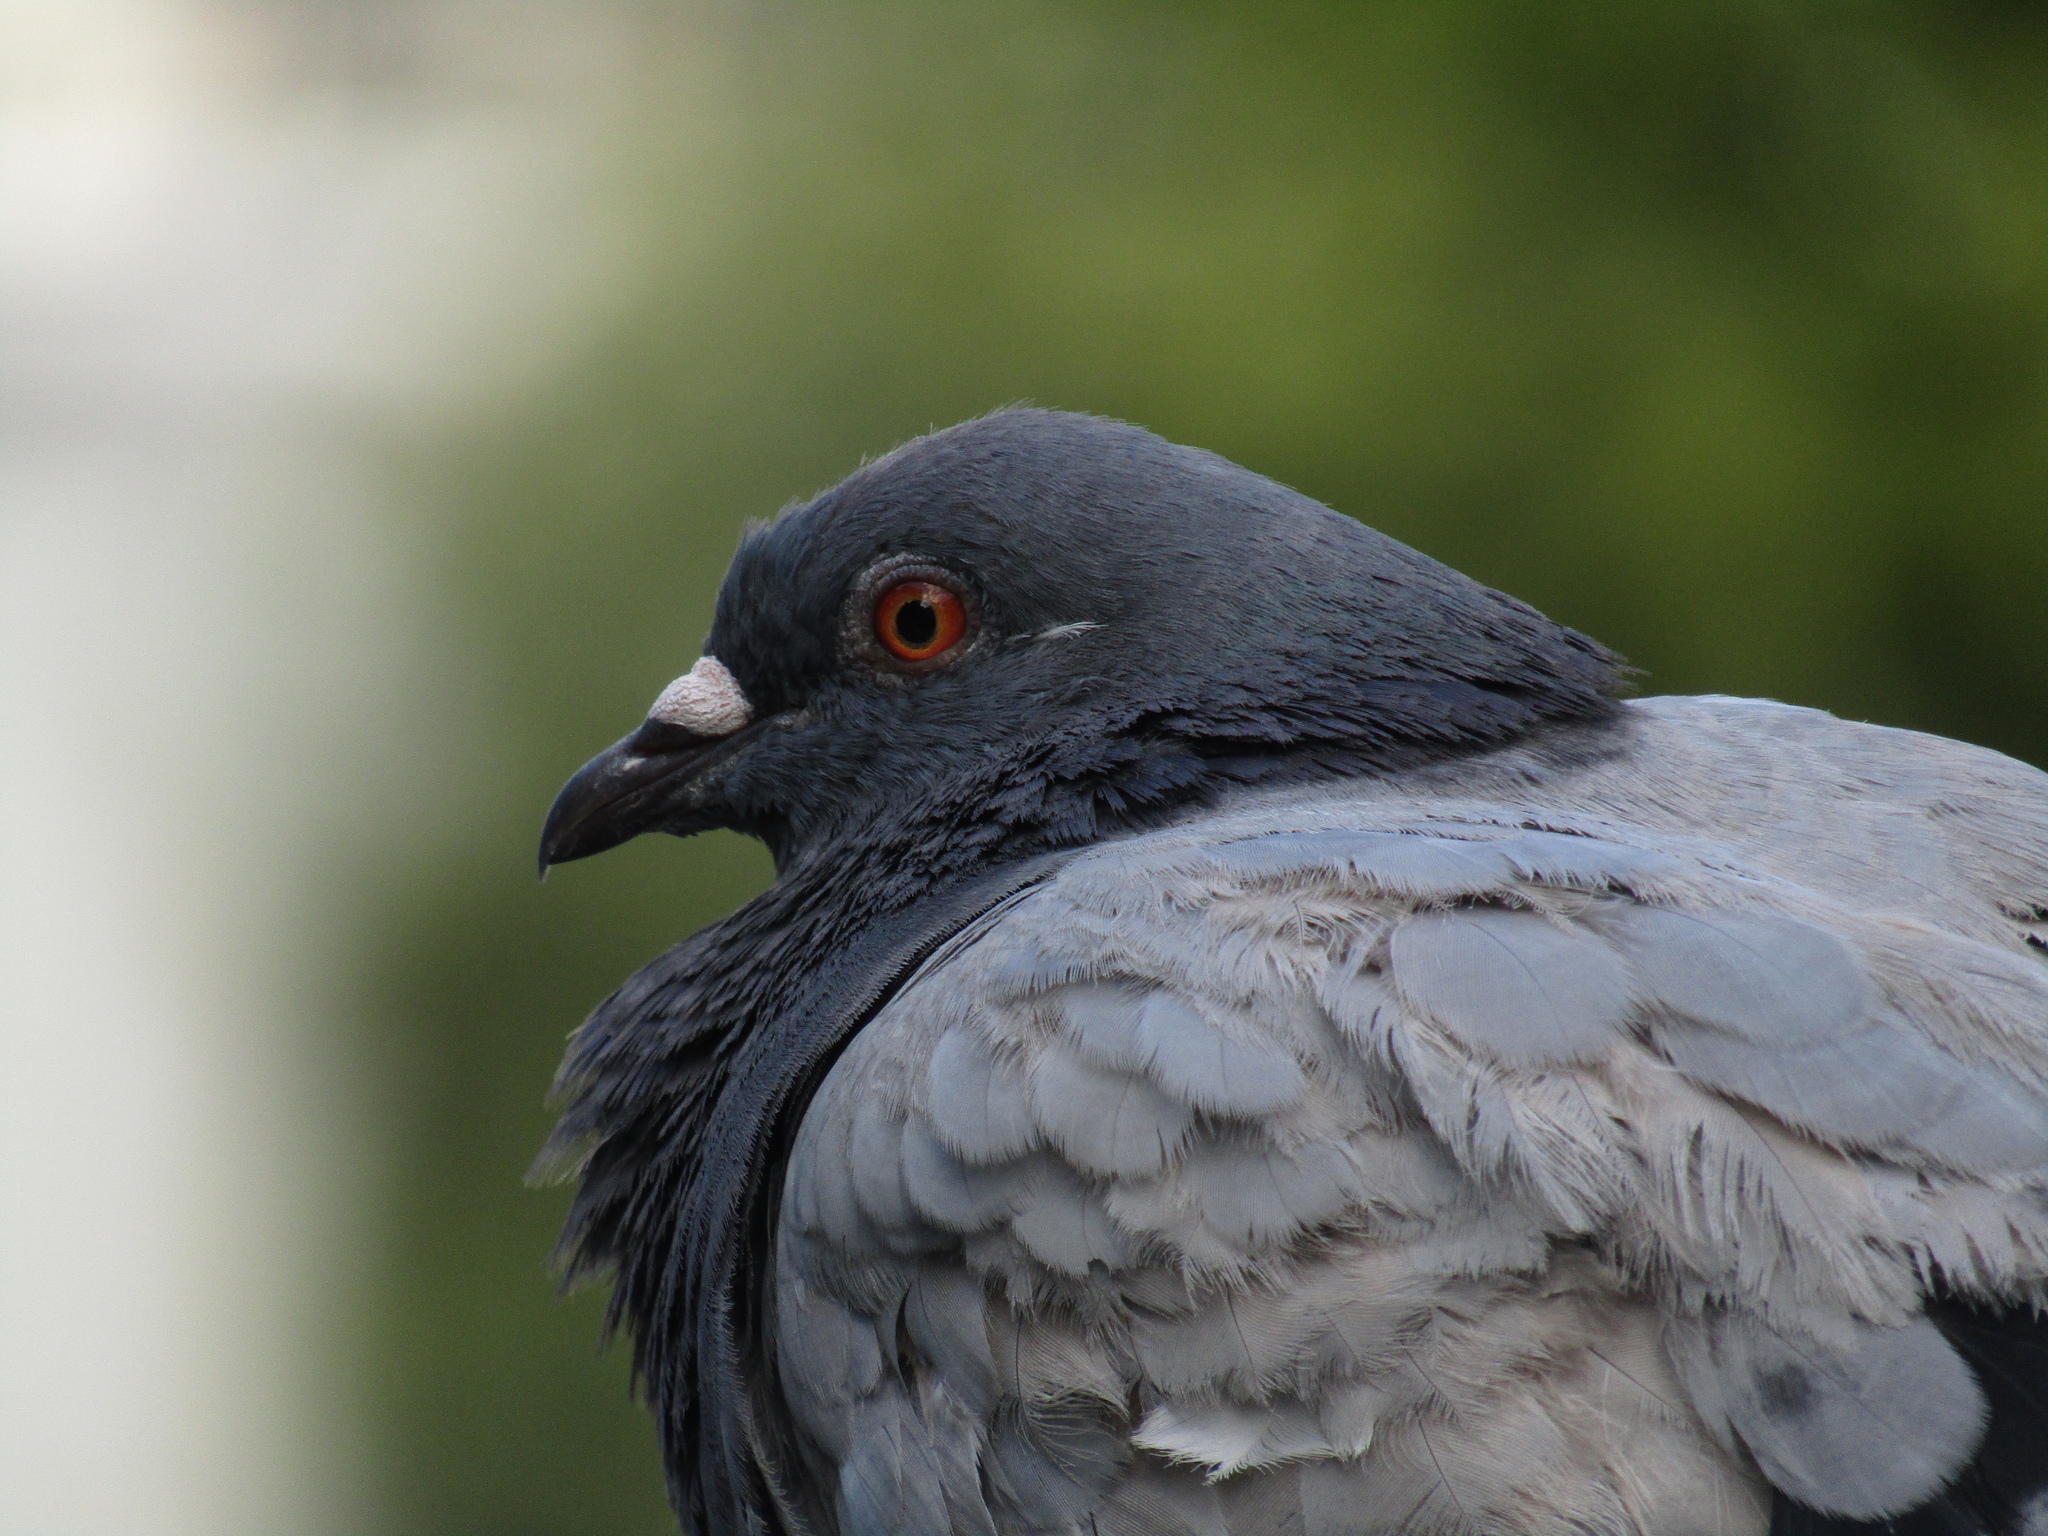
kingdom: Animalia
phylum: Chordata
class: Aves
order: Columbiformes
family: Columbidae
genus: Columba
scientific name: Columba livia
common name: Rock pigeon
